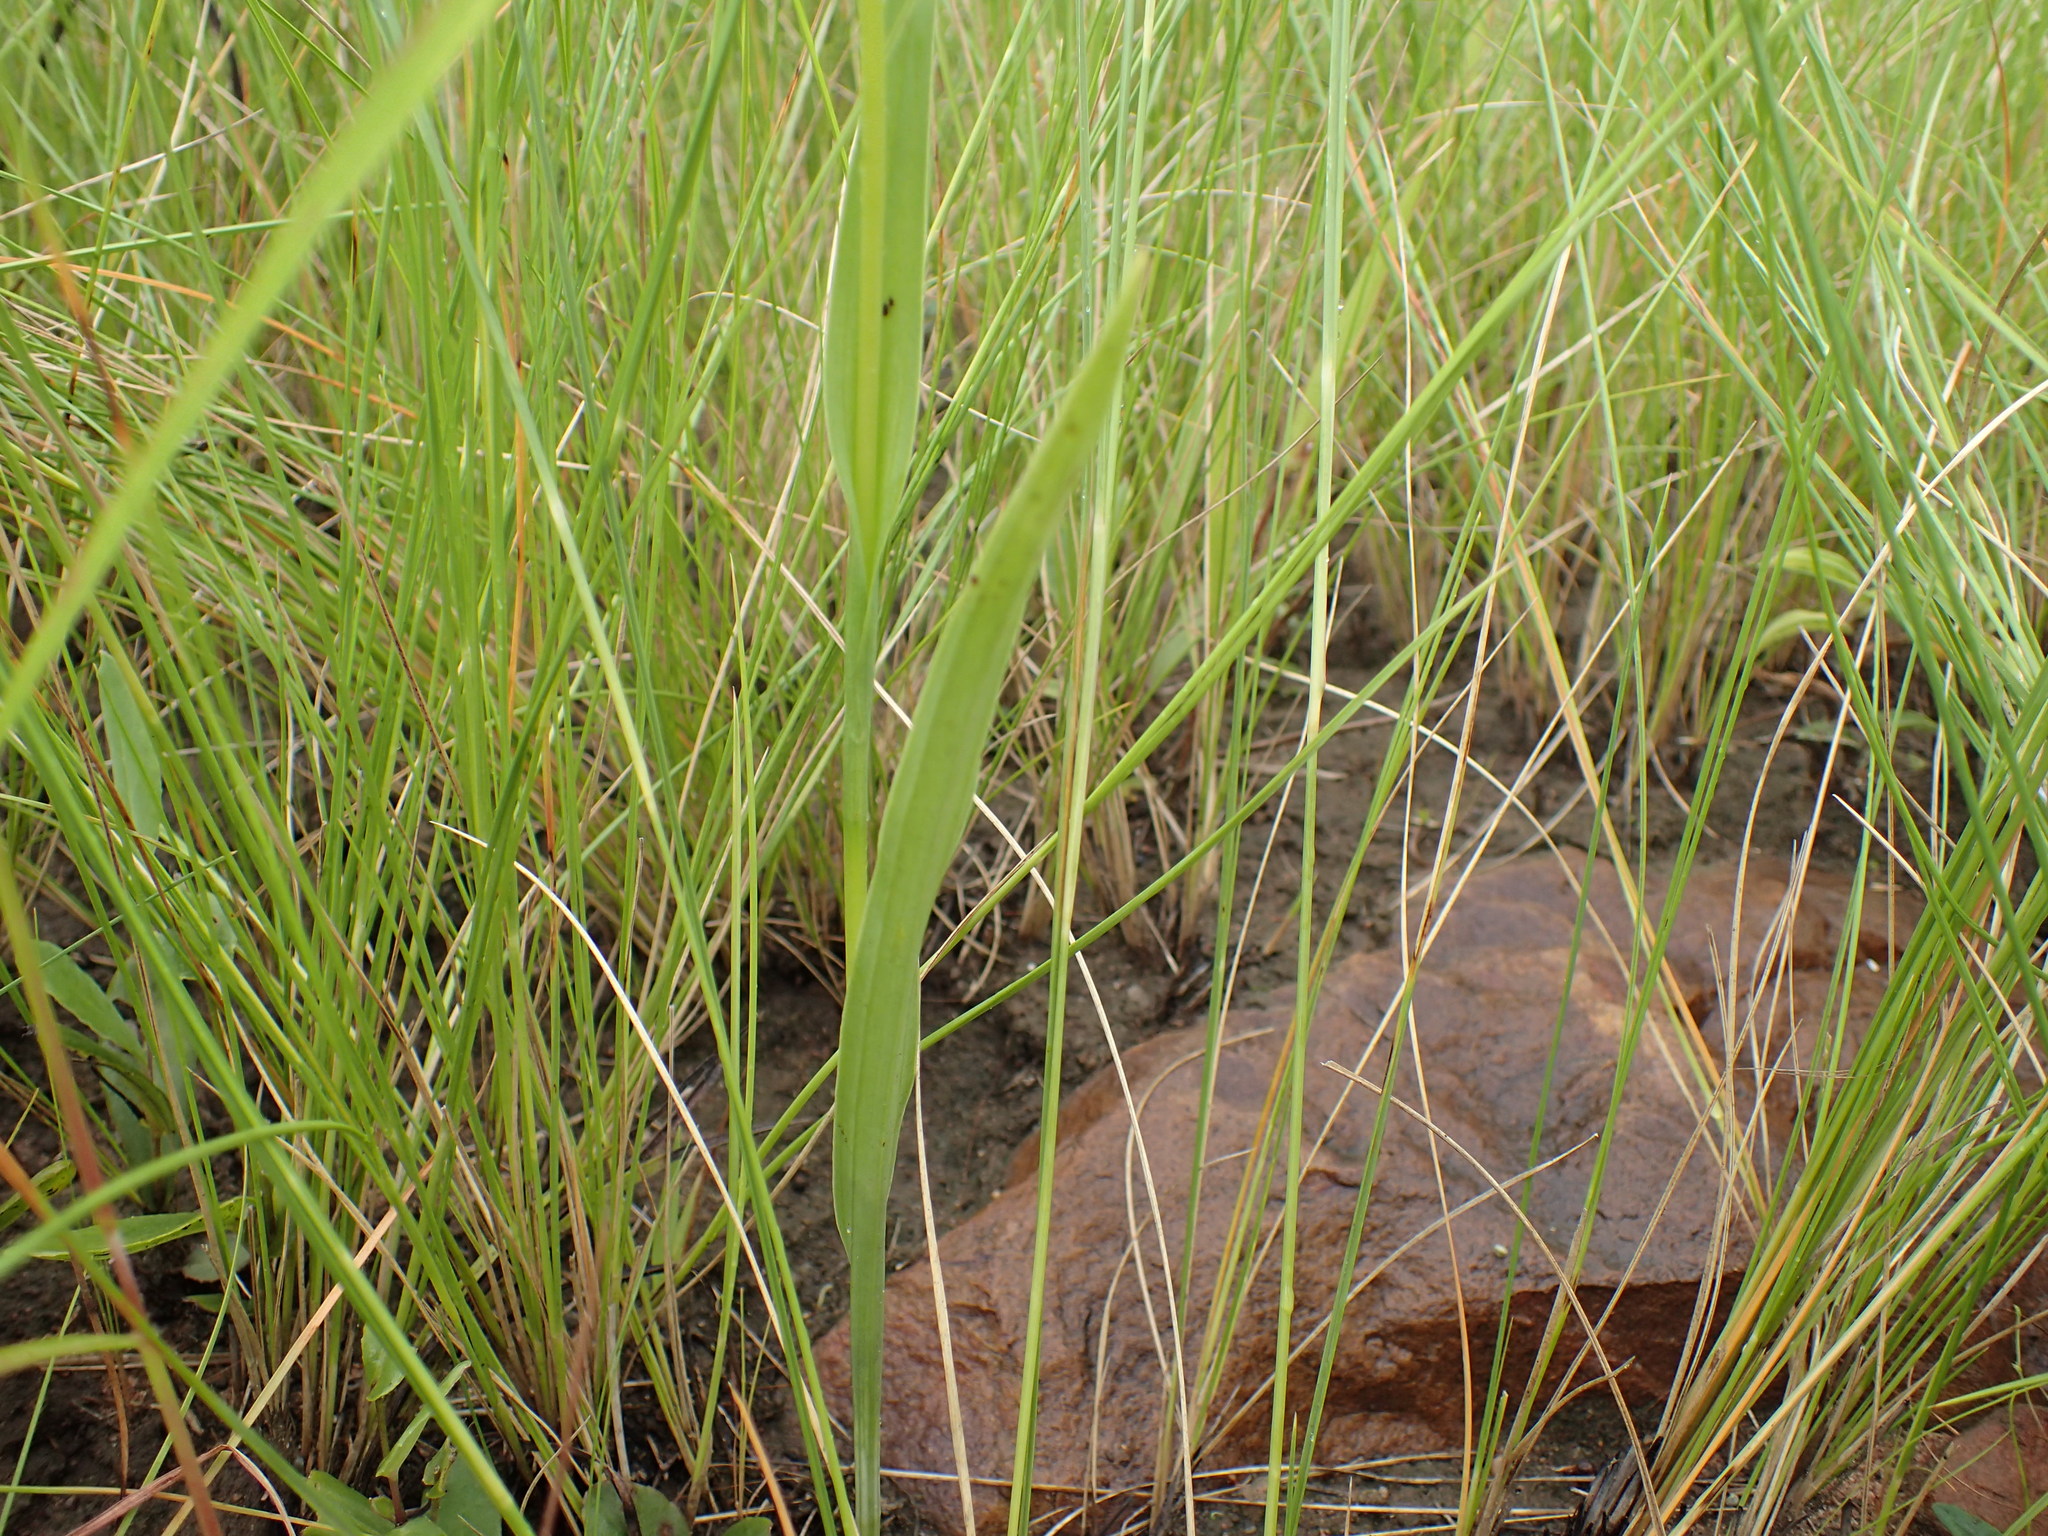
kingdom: Plantae
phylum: Tracheophyta
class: Liliopsida
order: Asparagales
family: Orchidaceae
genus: Habenaria
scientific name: Habenaria filicornis
